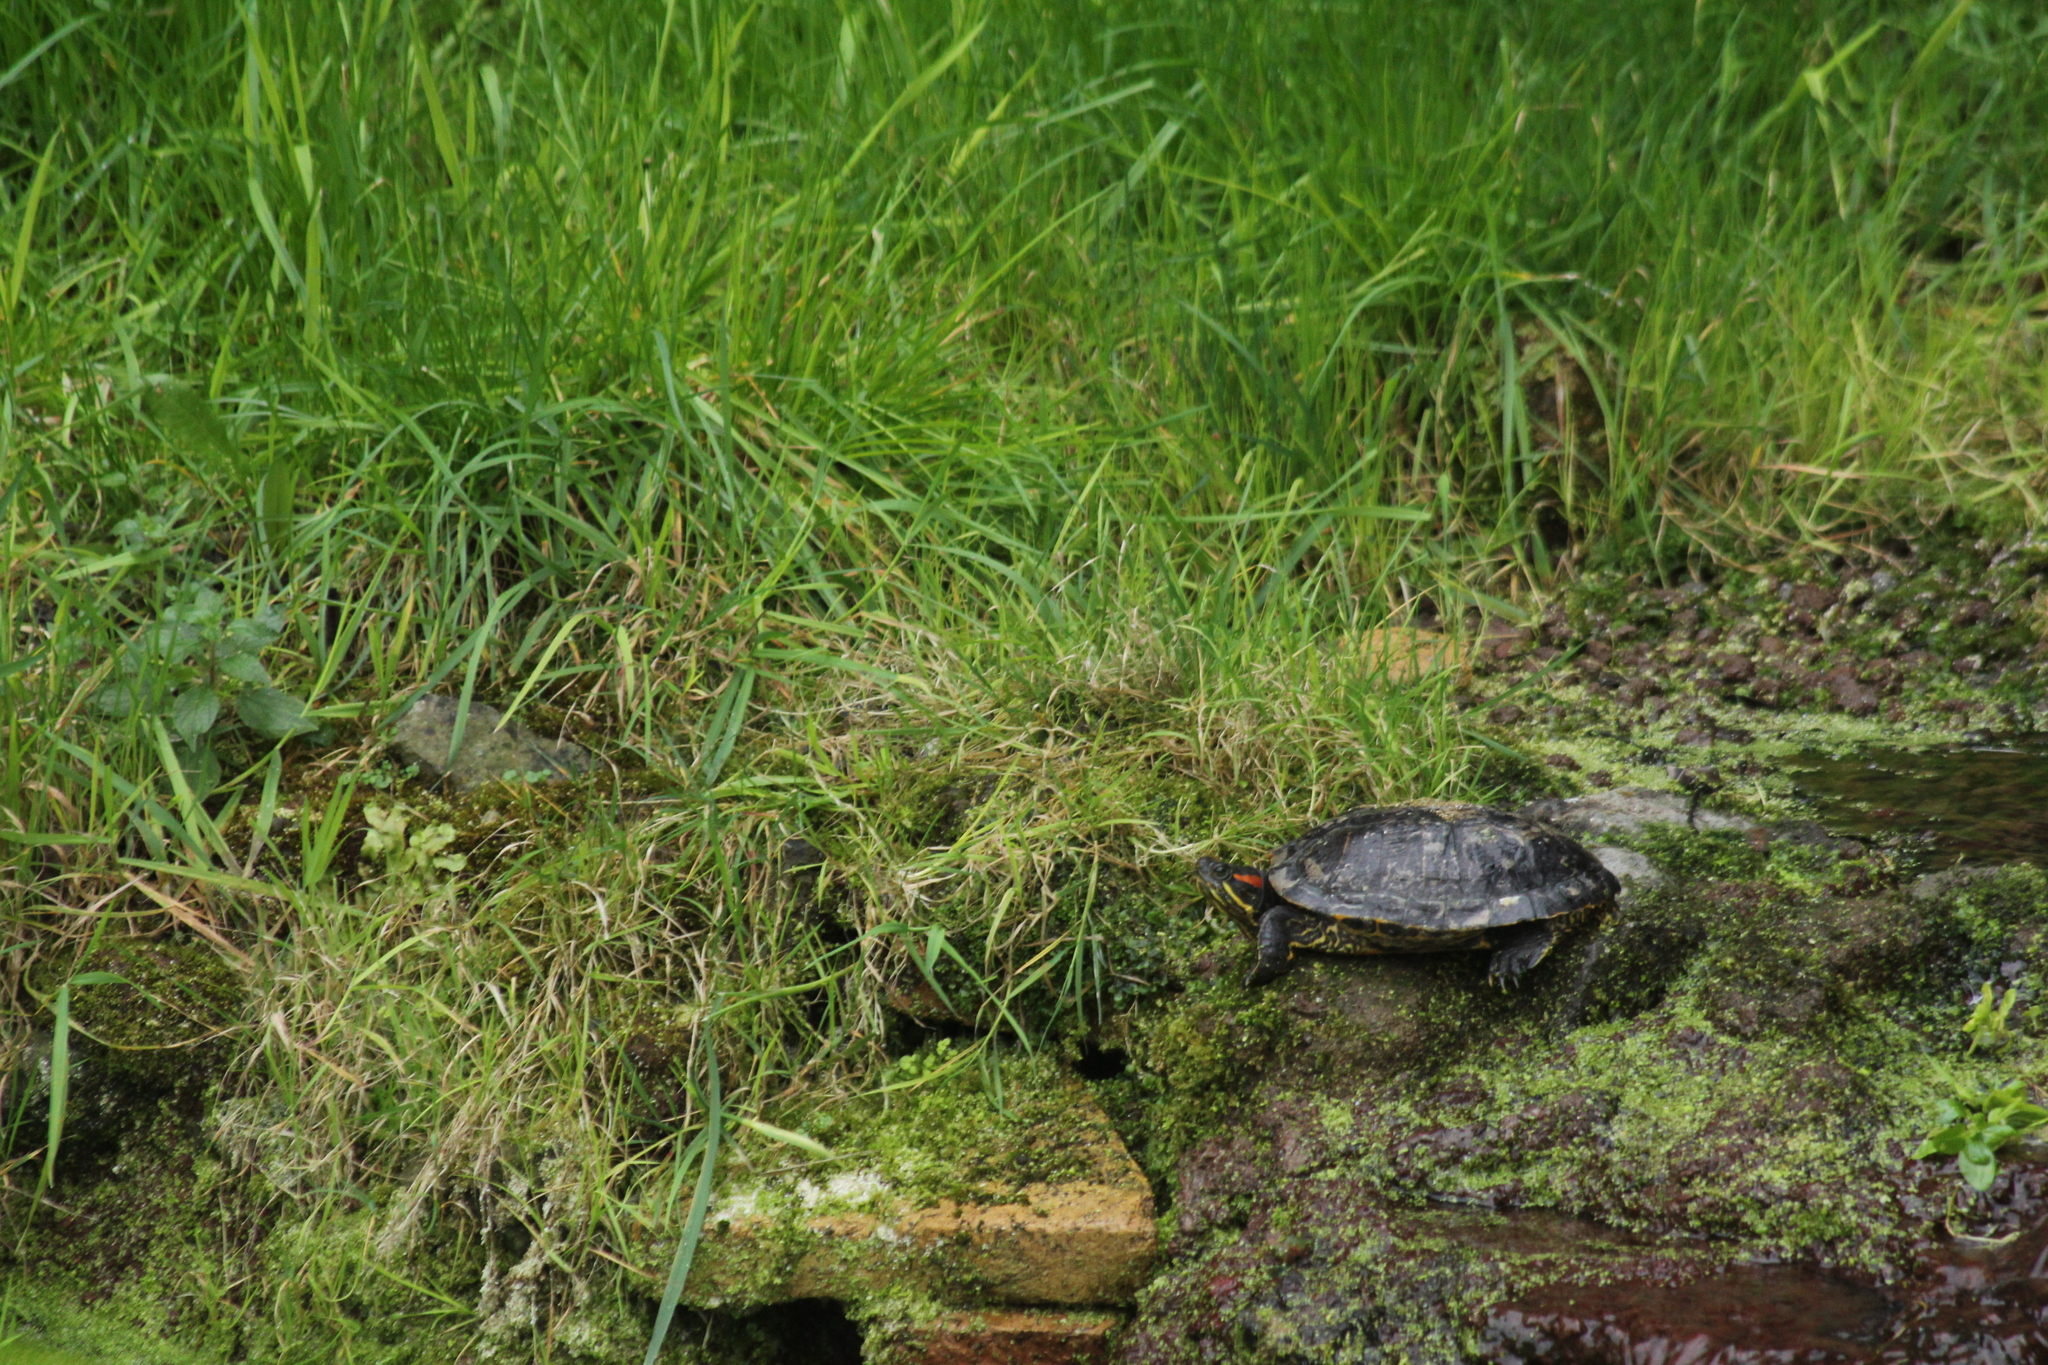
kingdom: Animalia
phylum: Chordata
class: Testudines
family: Emydidae
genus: Trachemys
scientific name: Trachemys scripta
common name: Slider
